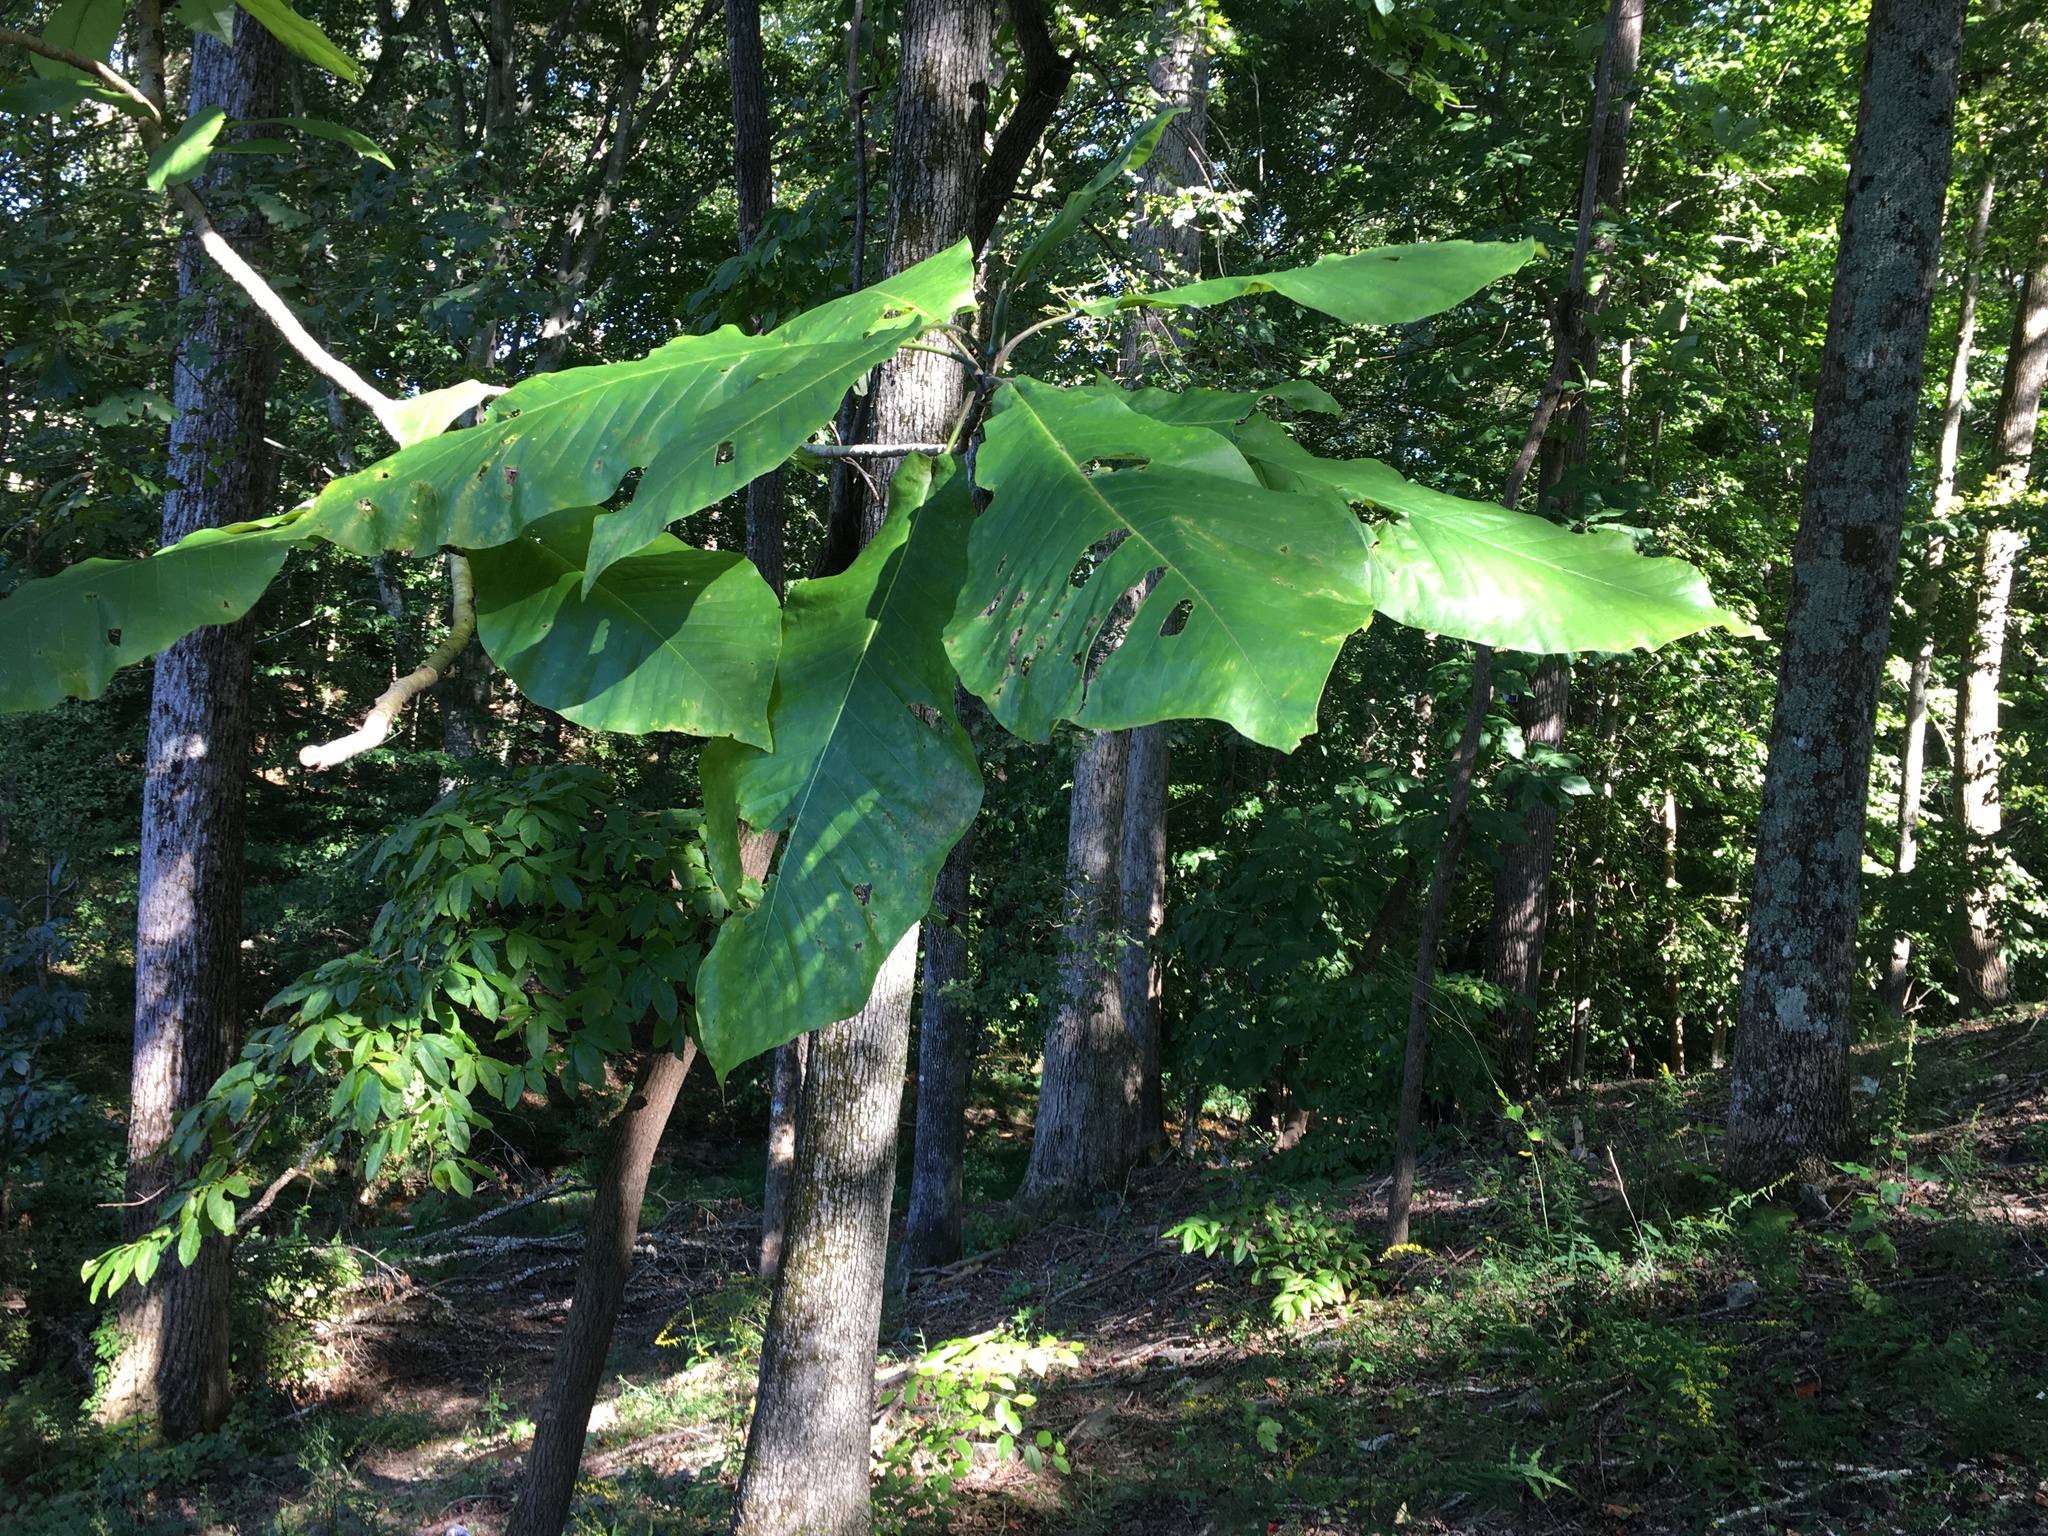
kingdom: Plantae
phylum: Tracheophyta
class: Magnoliopsida
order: Magnoliales
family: Magnoliaceae
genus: Magnolia
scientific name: Magnolia macrophylla
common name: Big-leaf magnolia
